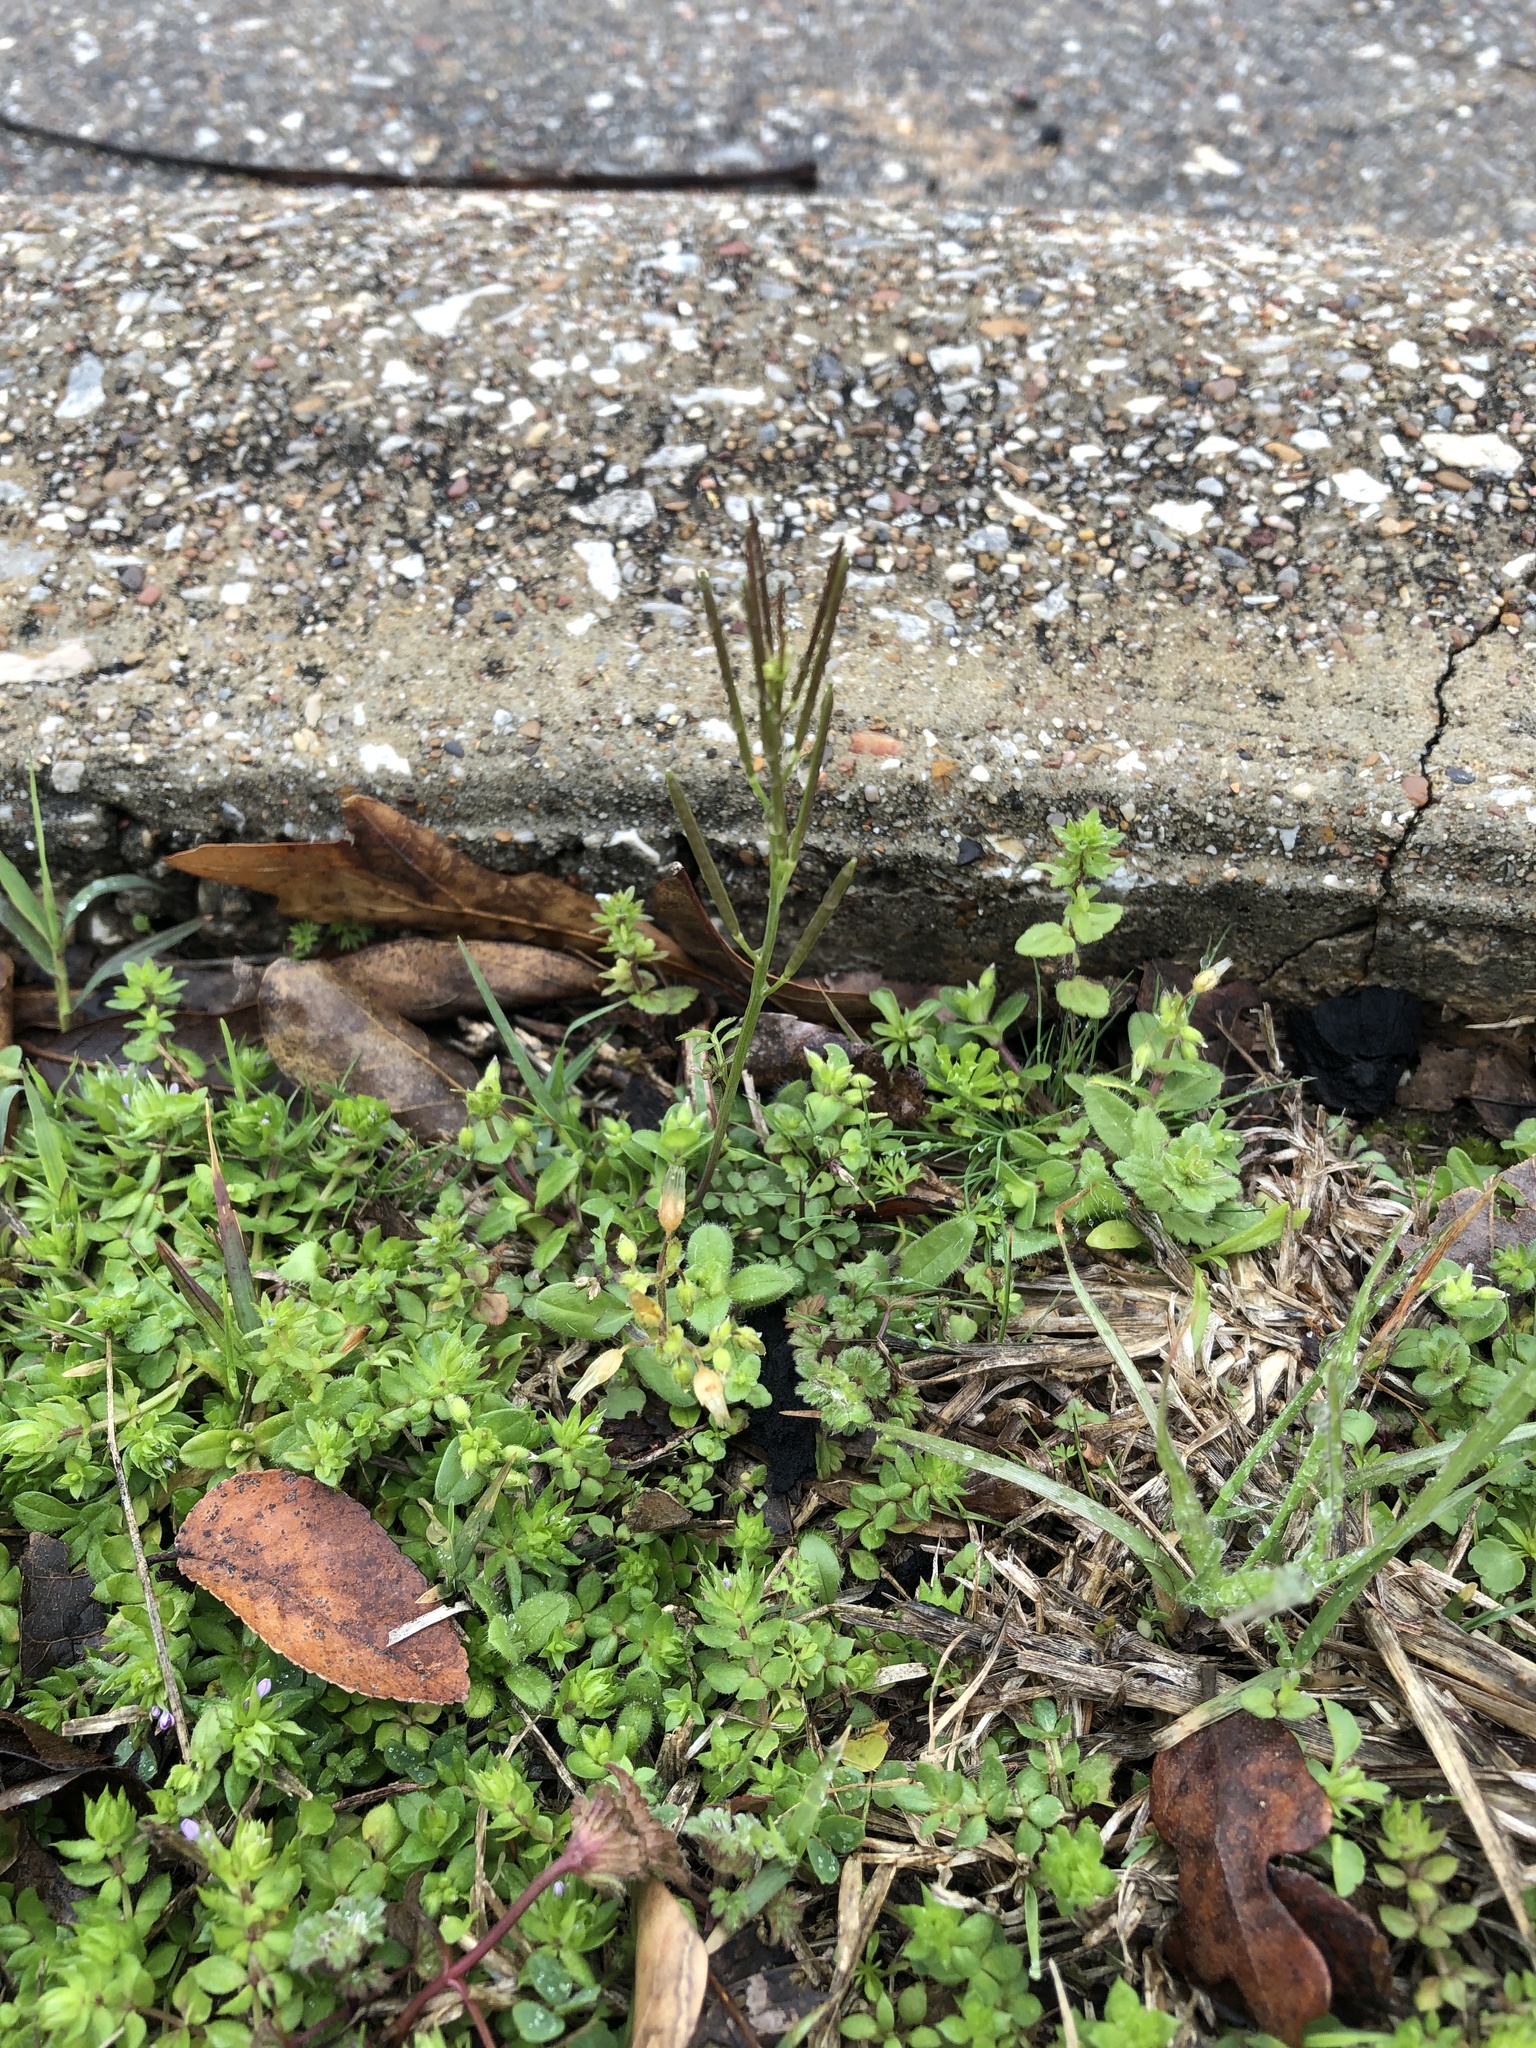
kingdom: Plantae
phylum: Tracheophyta
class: Magnoliopsida
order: Brassicales
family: Brassicaceae
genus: Cardamine
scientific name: Cardamine hirsuta
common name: Hairy bittercress
